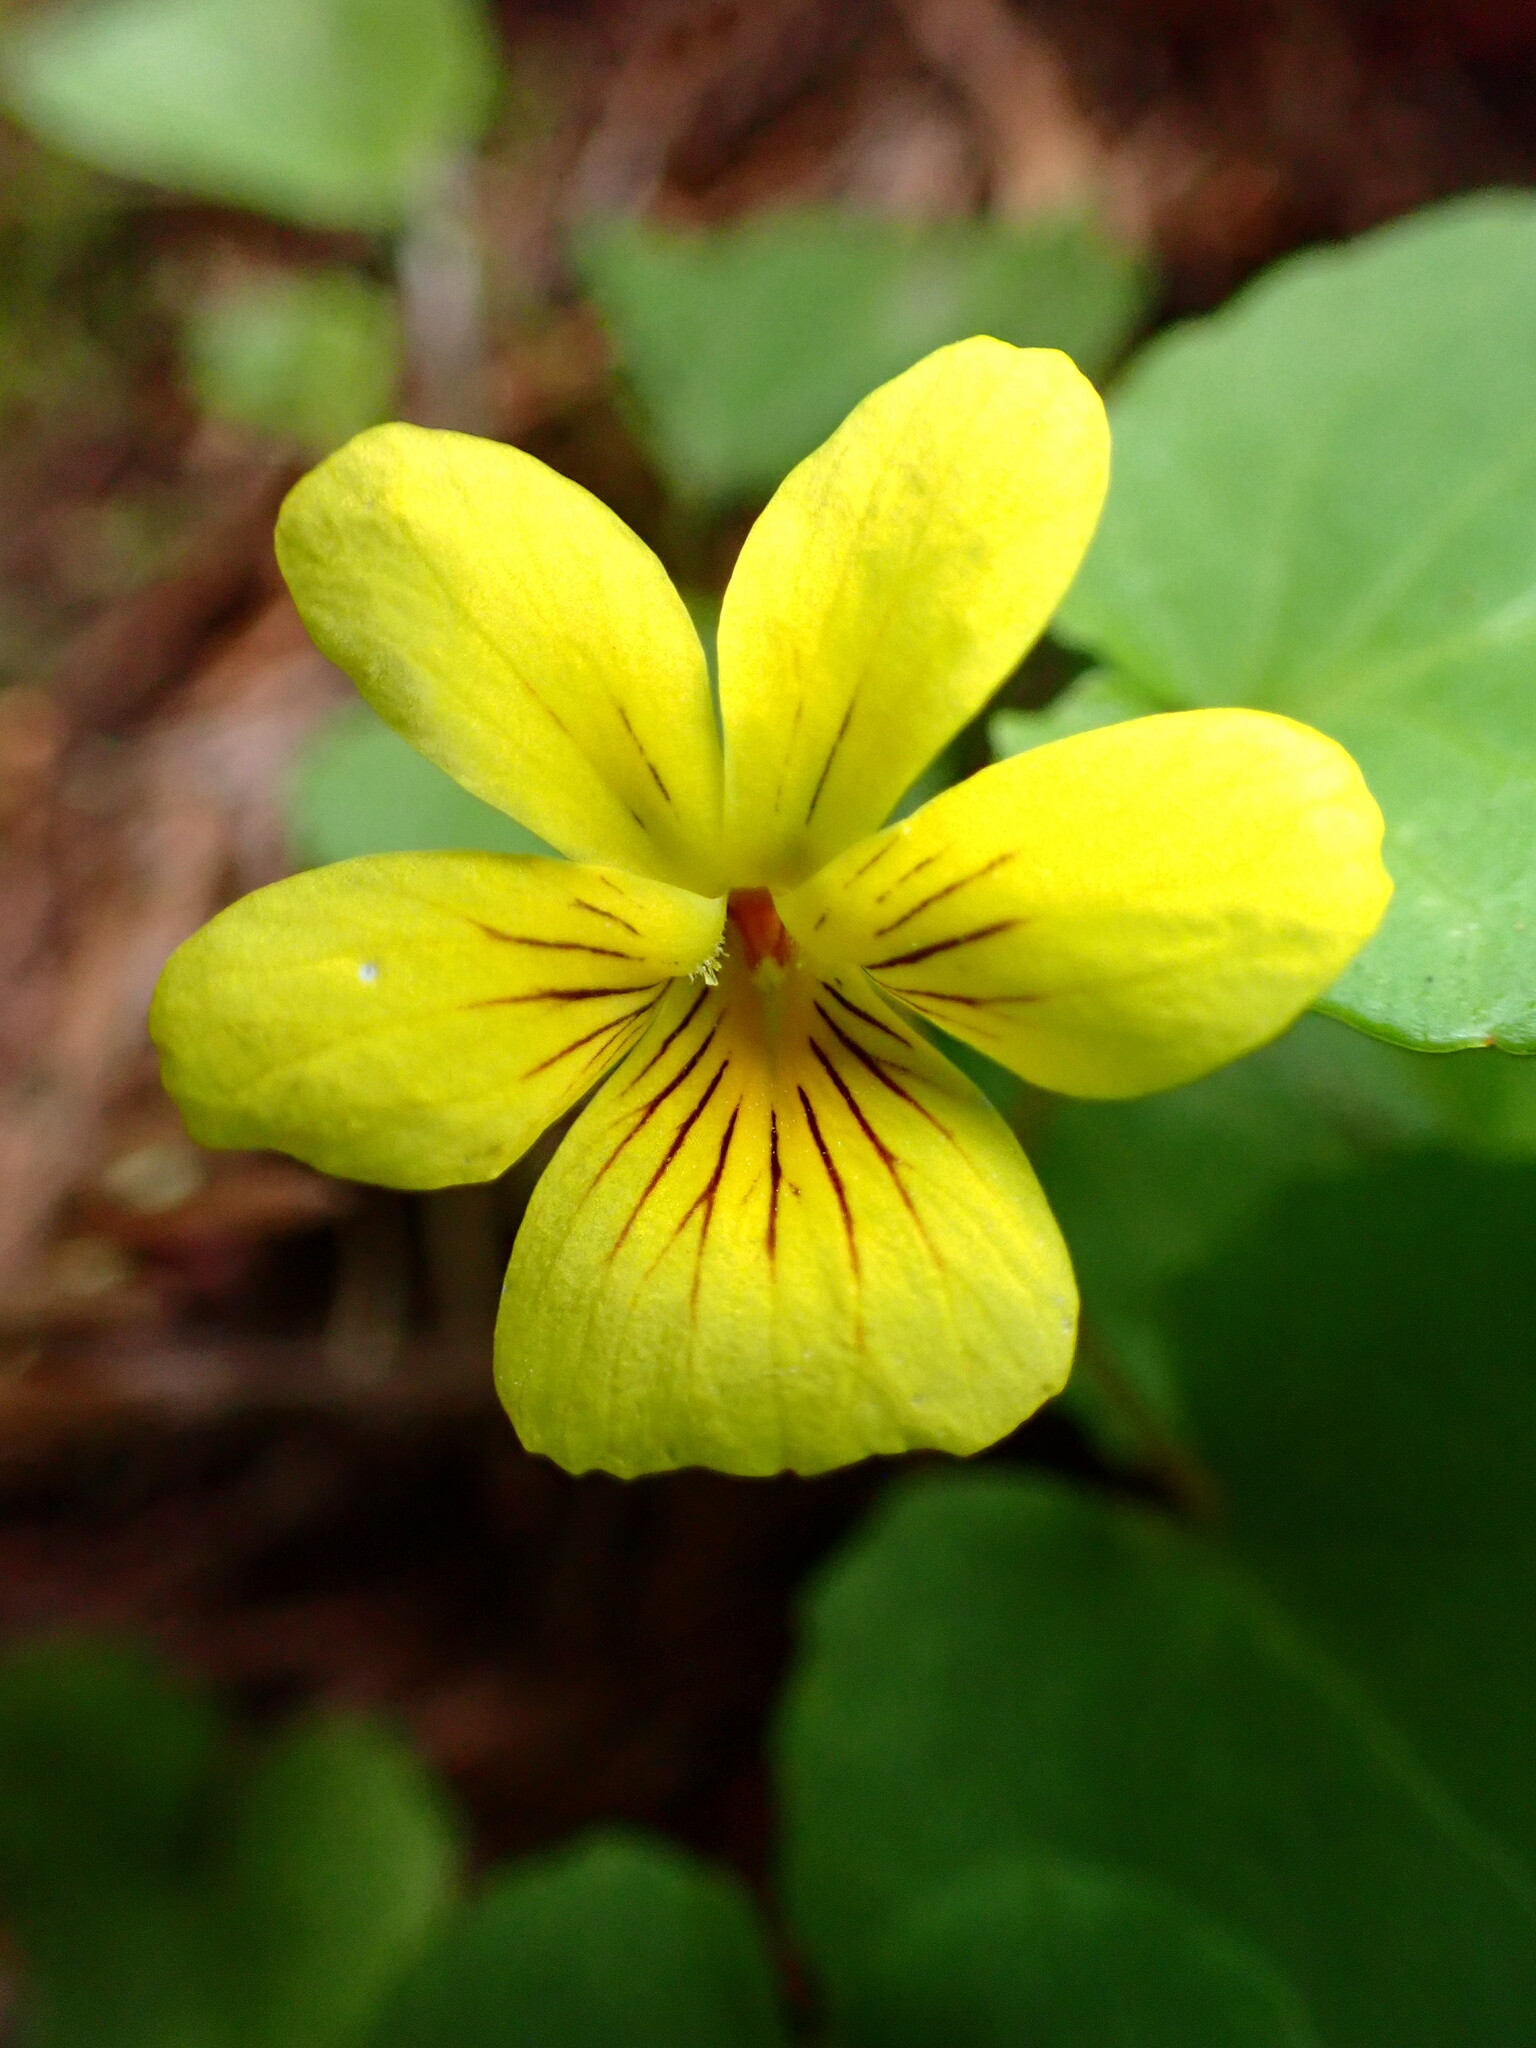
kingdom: Plantae
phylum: Tracheophyta
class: Magnoliopsida
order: Malpighiales
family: Violaceae
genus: Viola
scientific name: Viola glabella
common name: Stream violet
